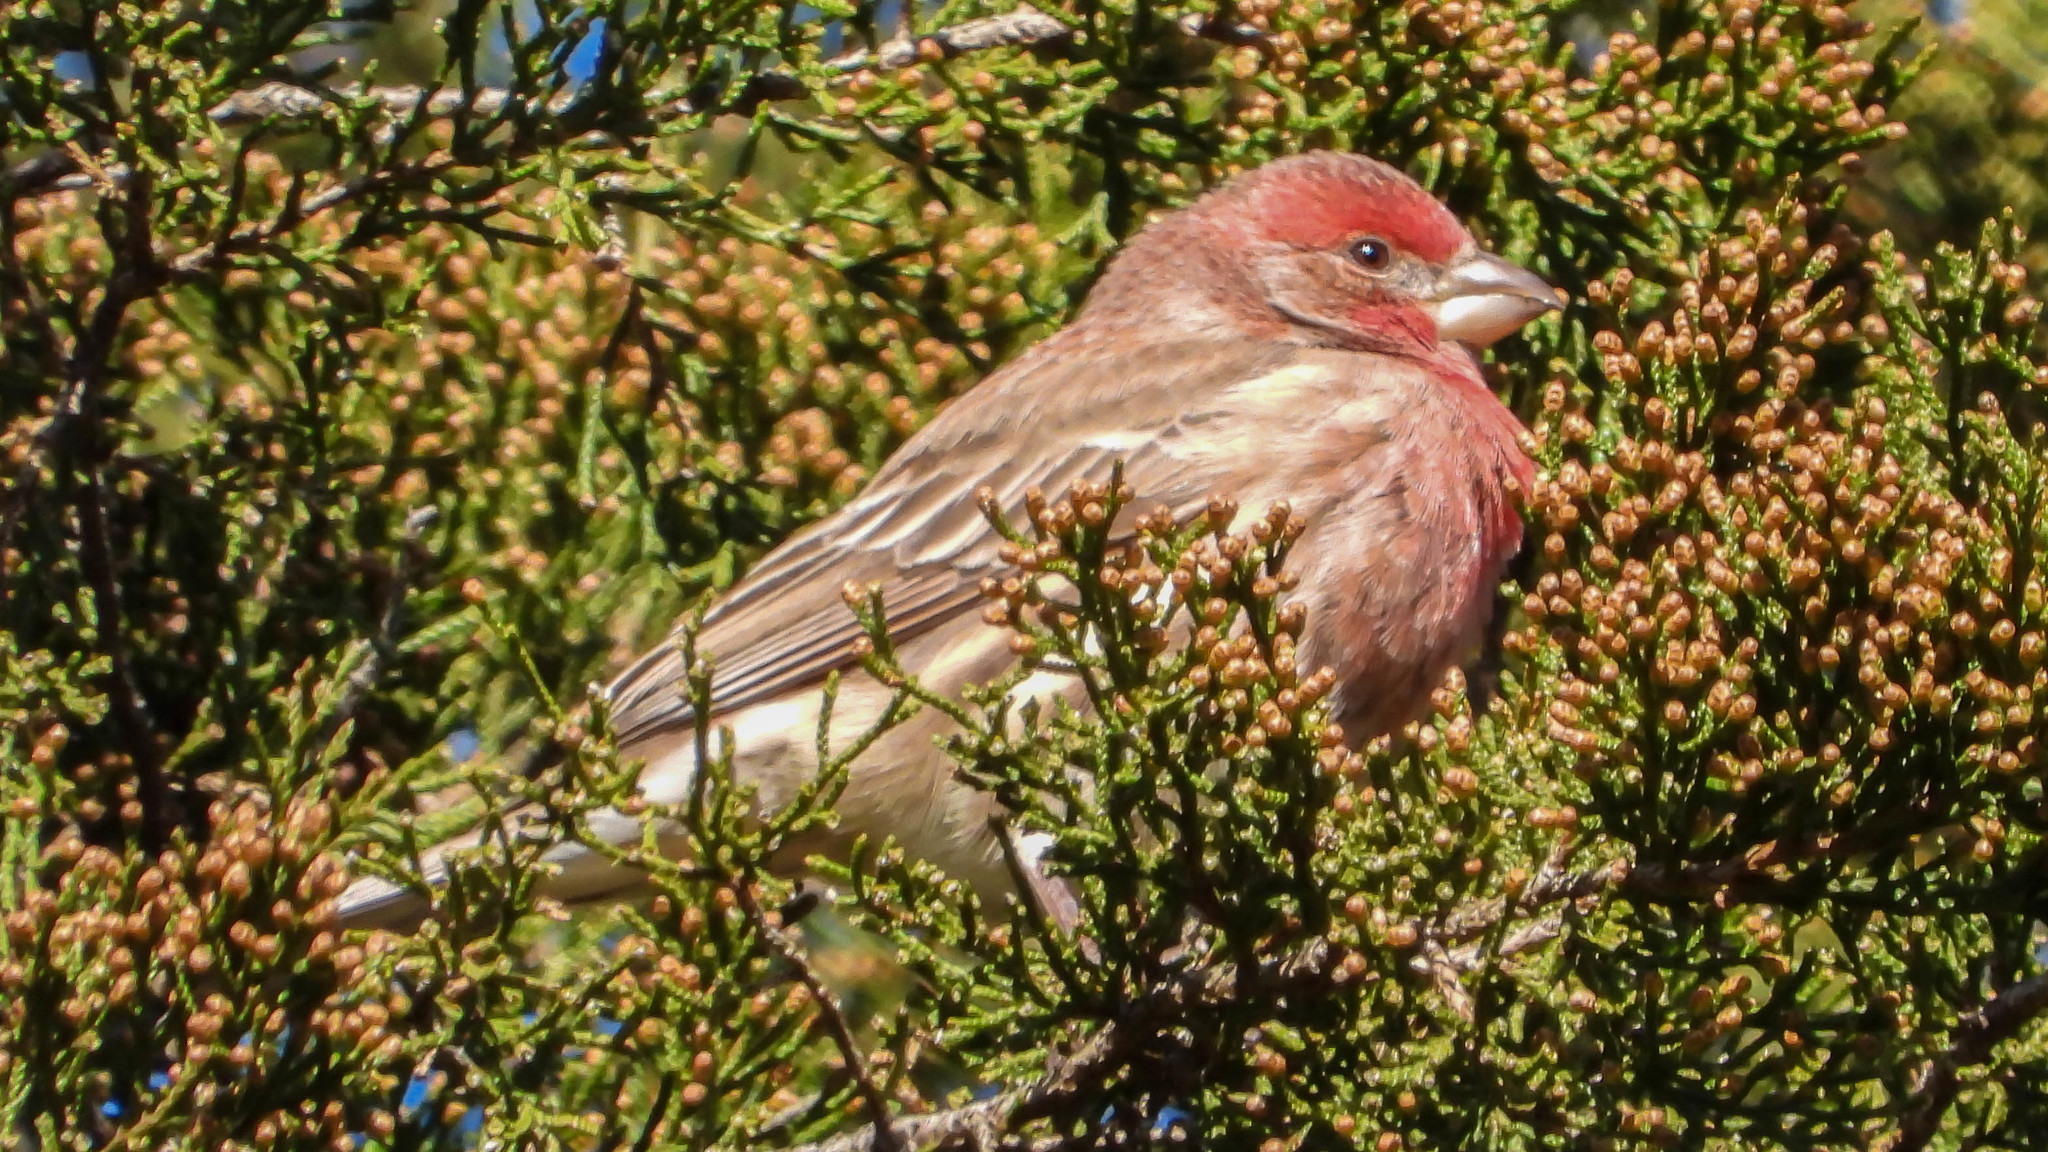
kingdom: Animalia
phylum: Chordata
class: Aves
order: Passeriformes
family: Fringillidae
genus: Haemorhous
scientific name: Haemorhous mexicanus
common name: House finch
